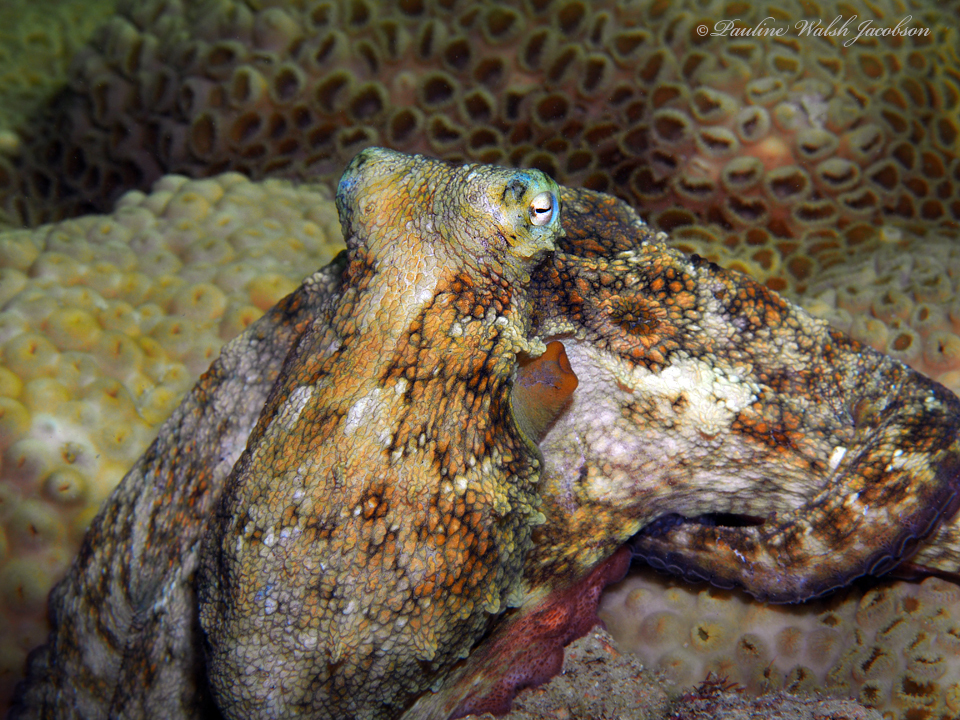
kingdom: Animalia
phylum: Mollusca
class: Cephalopoda
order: Octopoda
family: Octopodidae
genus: Octopus
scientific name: Octopus hummelincki
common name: Caribbean two-spot octopus
